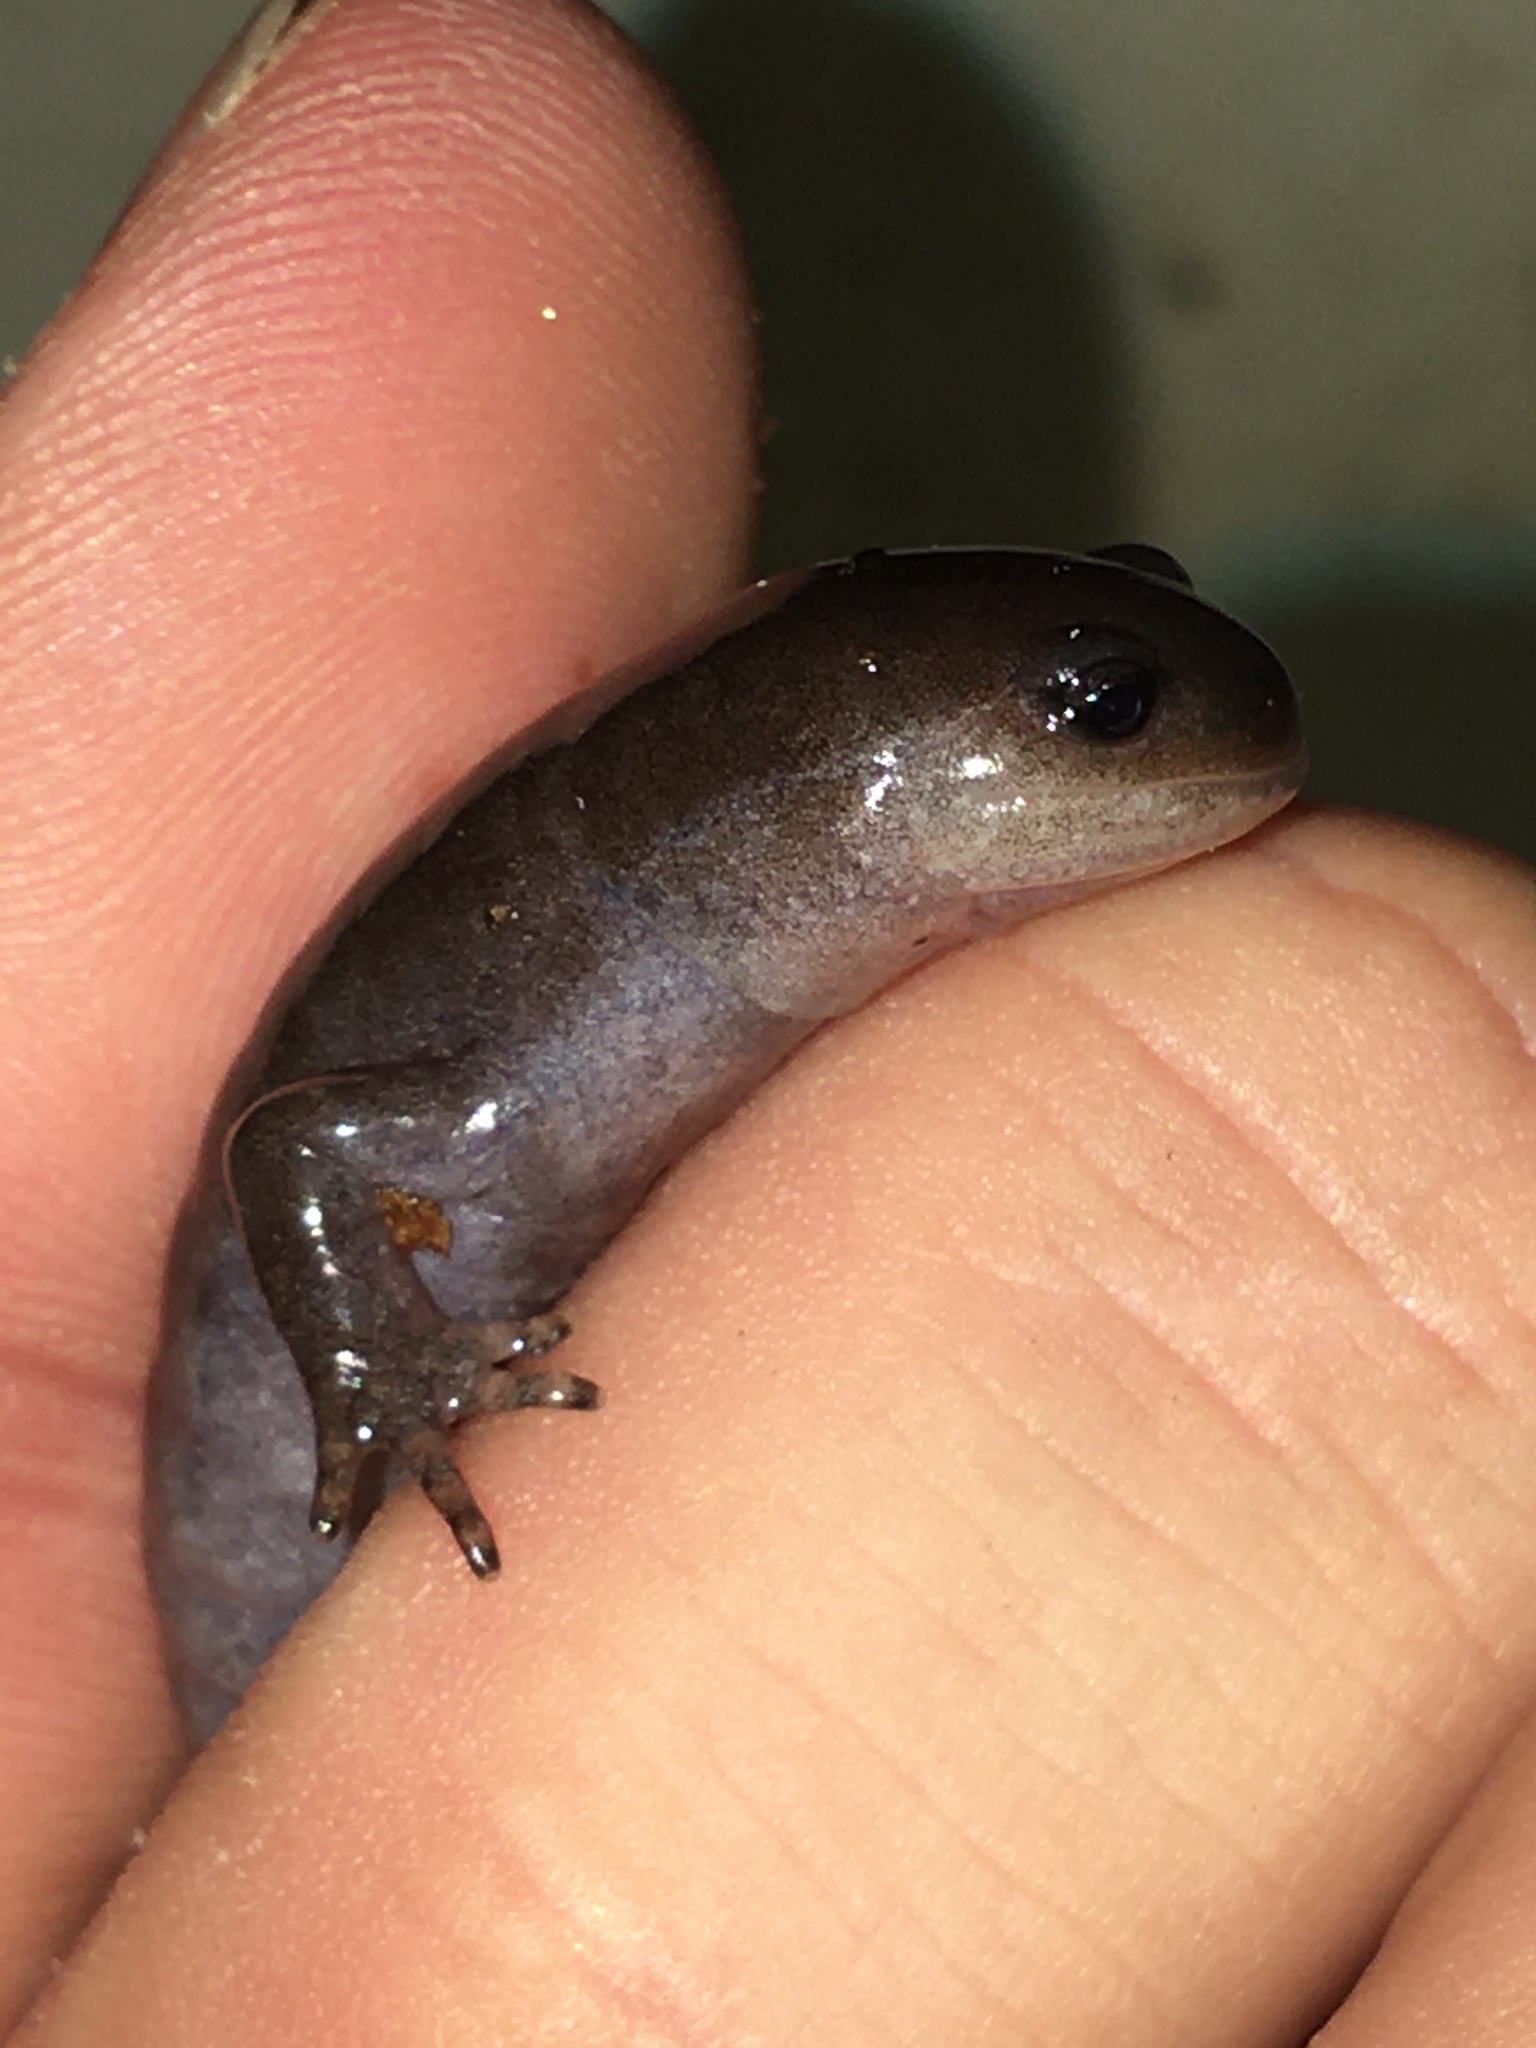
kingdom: Animalia
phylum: Chordata
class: Amphibia
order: Caudata
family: Ambystomatidae
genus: Ambystoma
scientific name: Ambystoma texanum
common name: Small-mouth salamander
